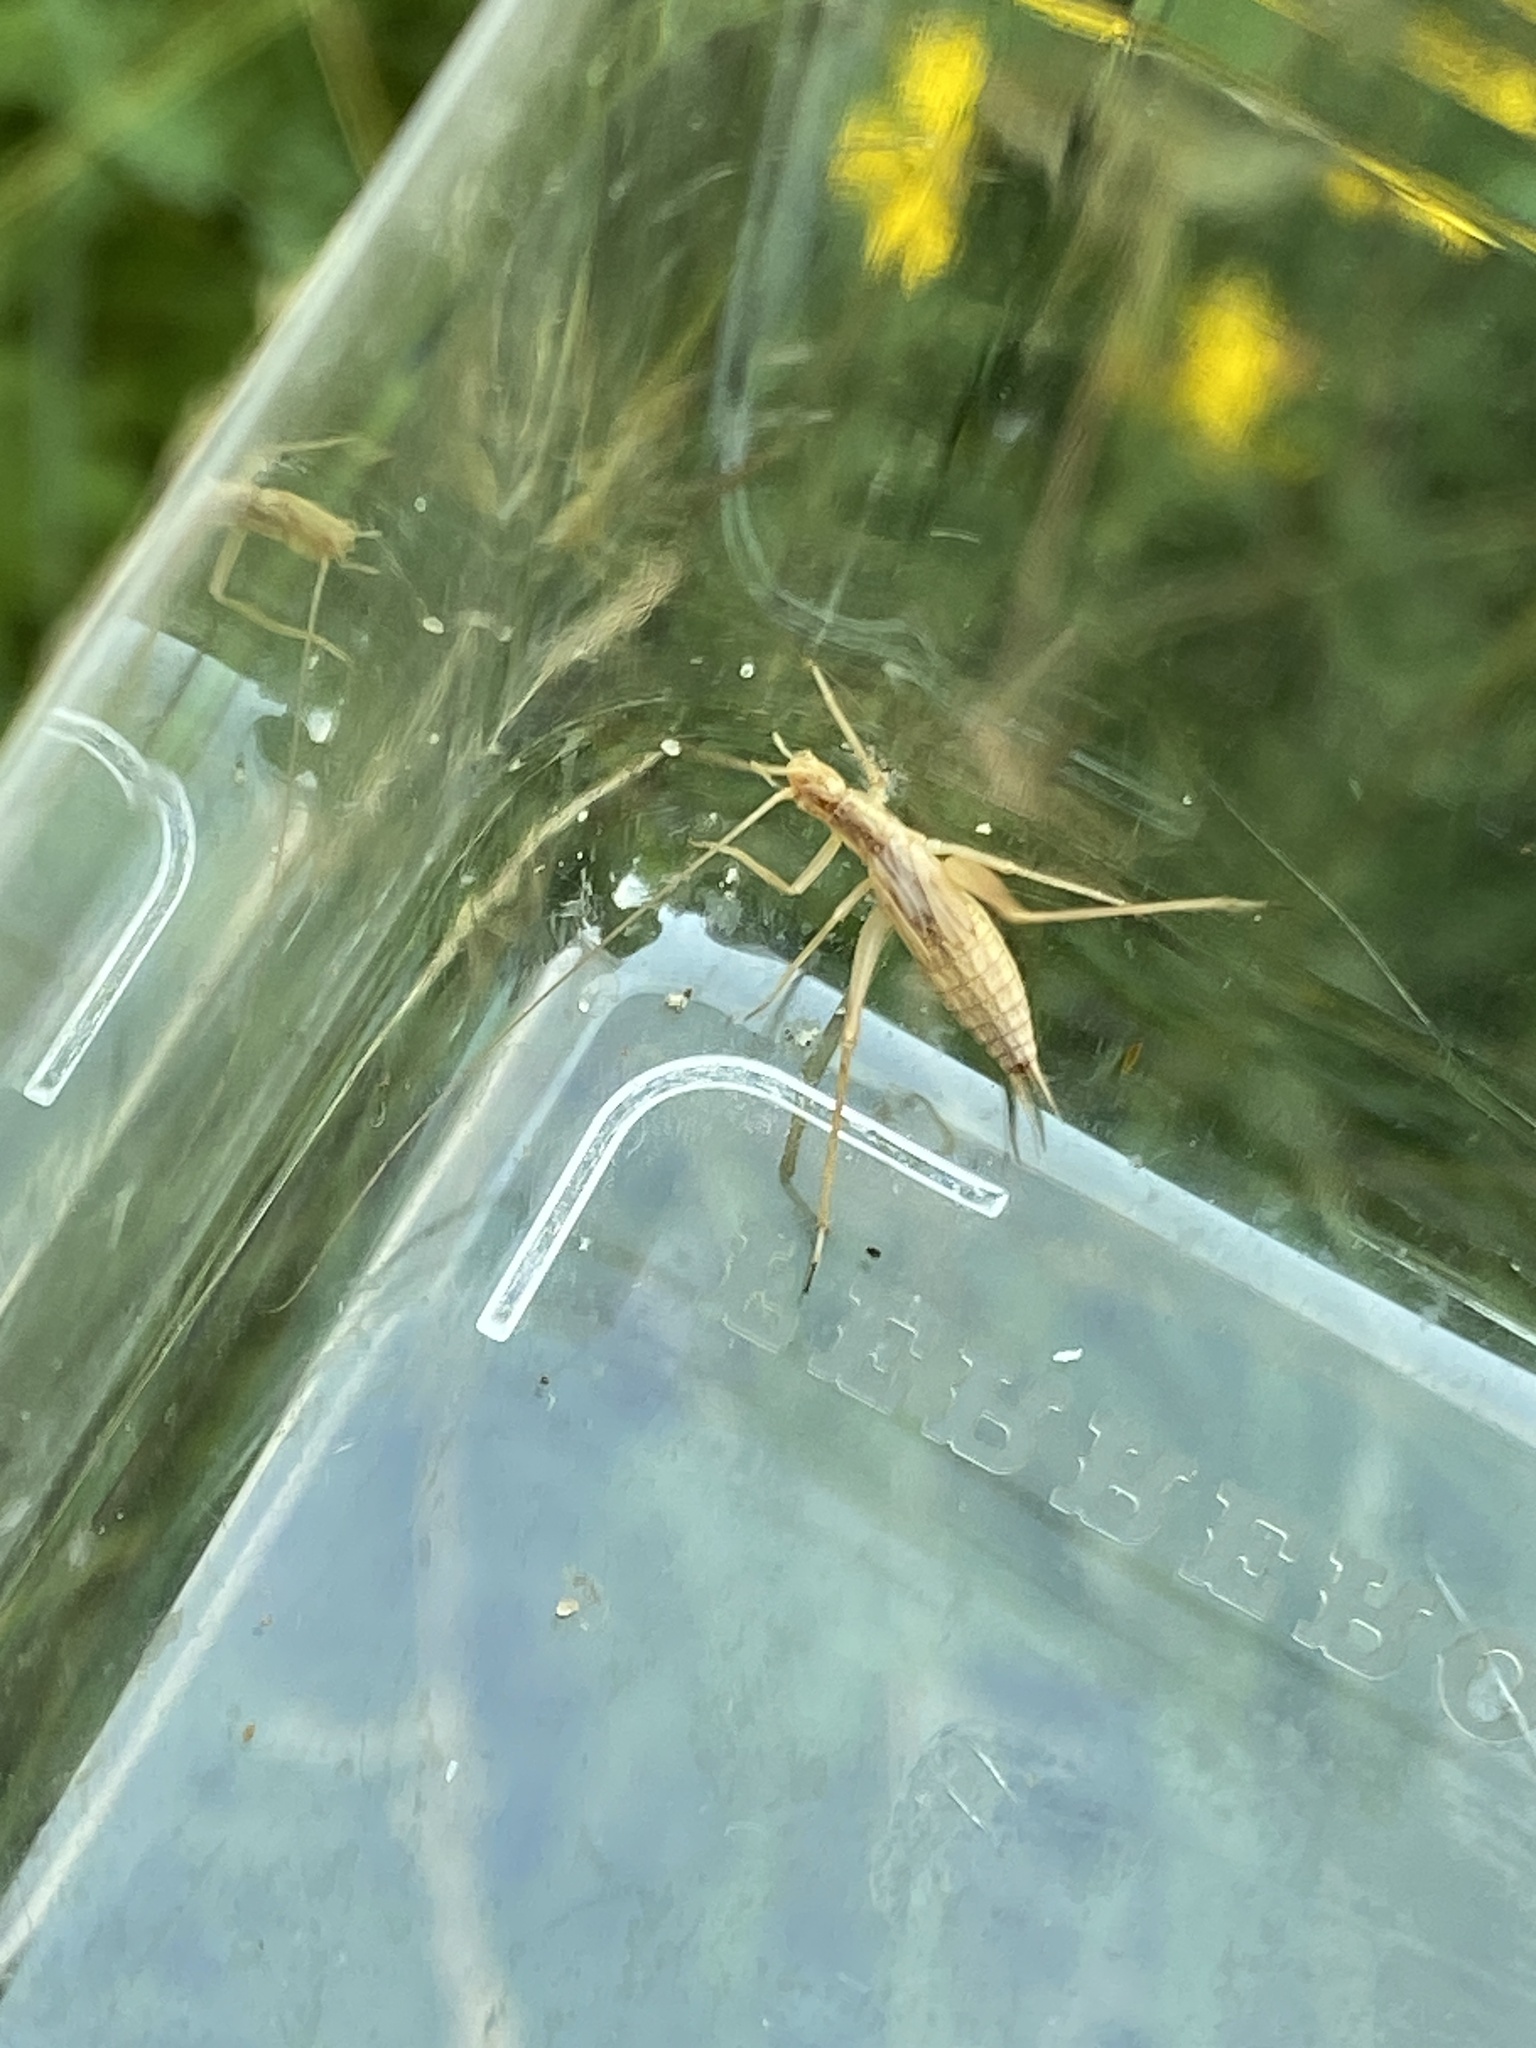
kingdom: Animalia
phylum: Arthropoda
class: Insecta
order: Orthoptera
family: Gryllidae
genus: Oecanthus
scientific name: Oecanthus pellucens
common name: Tree-cricket
